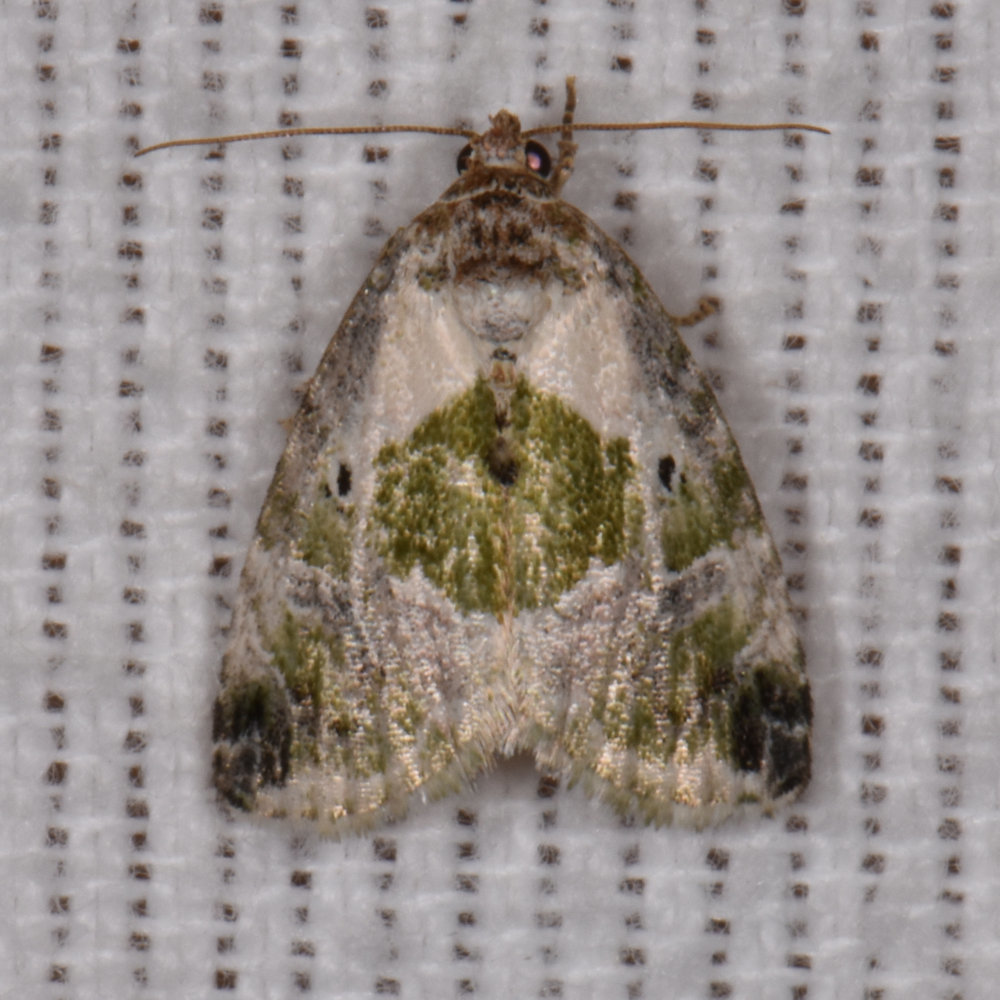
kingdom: Animalia
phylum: Arthropoda
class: Insecta
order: Lepidoptera
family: Noctuidae
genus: Maliattha
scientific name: Maliattha synochitis
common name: Black-dotted glyph
